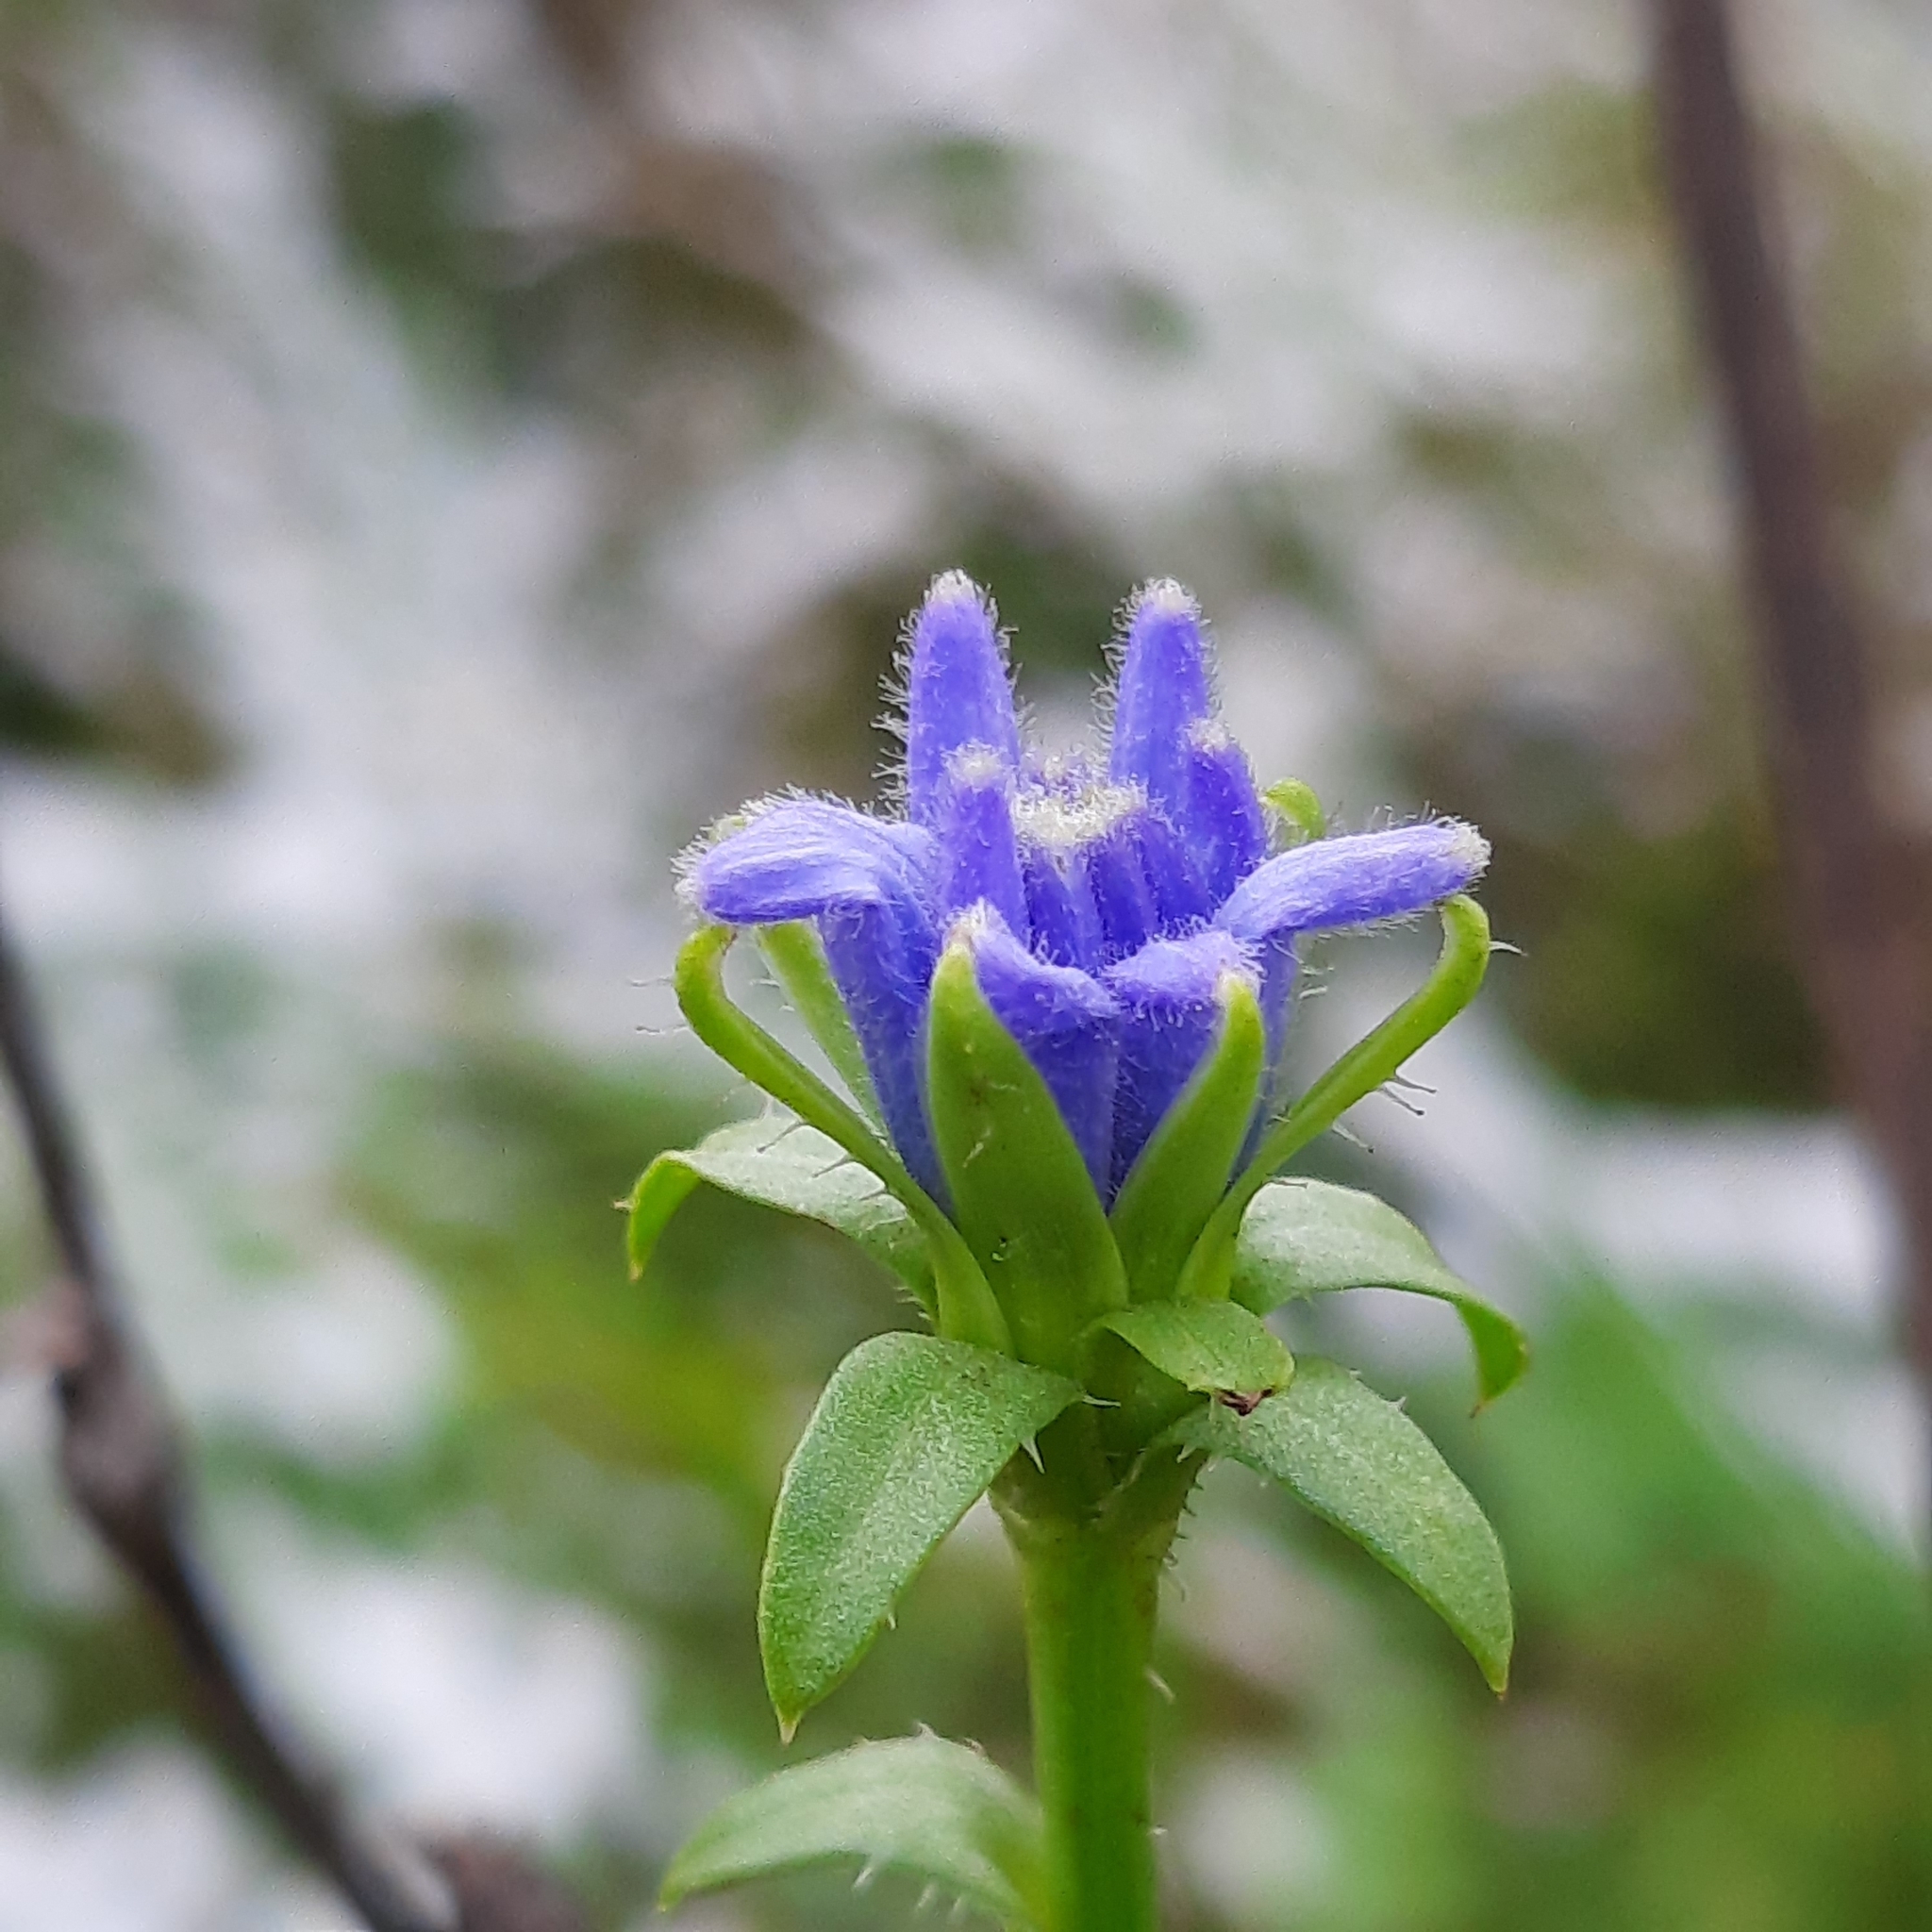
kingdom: Plantae
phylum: Tracheophyta
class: Magnoliopsida
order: Asterales
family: Asteraceae
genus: Cichorium
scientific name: Cichorium intybus
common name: Chicory
